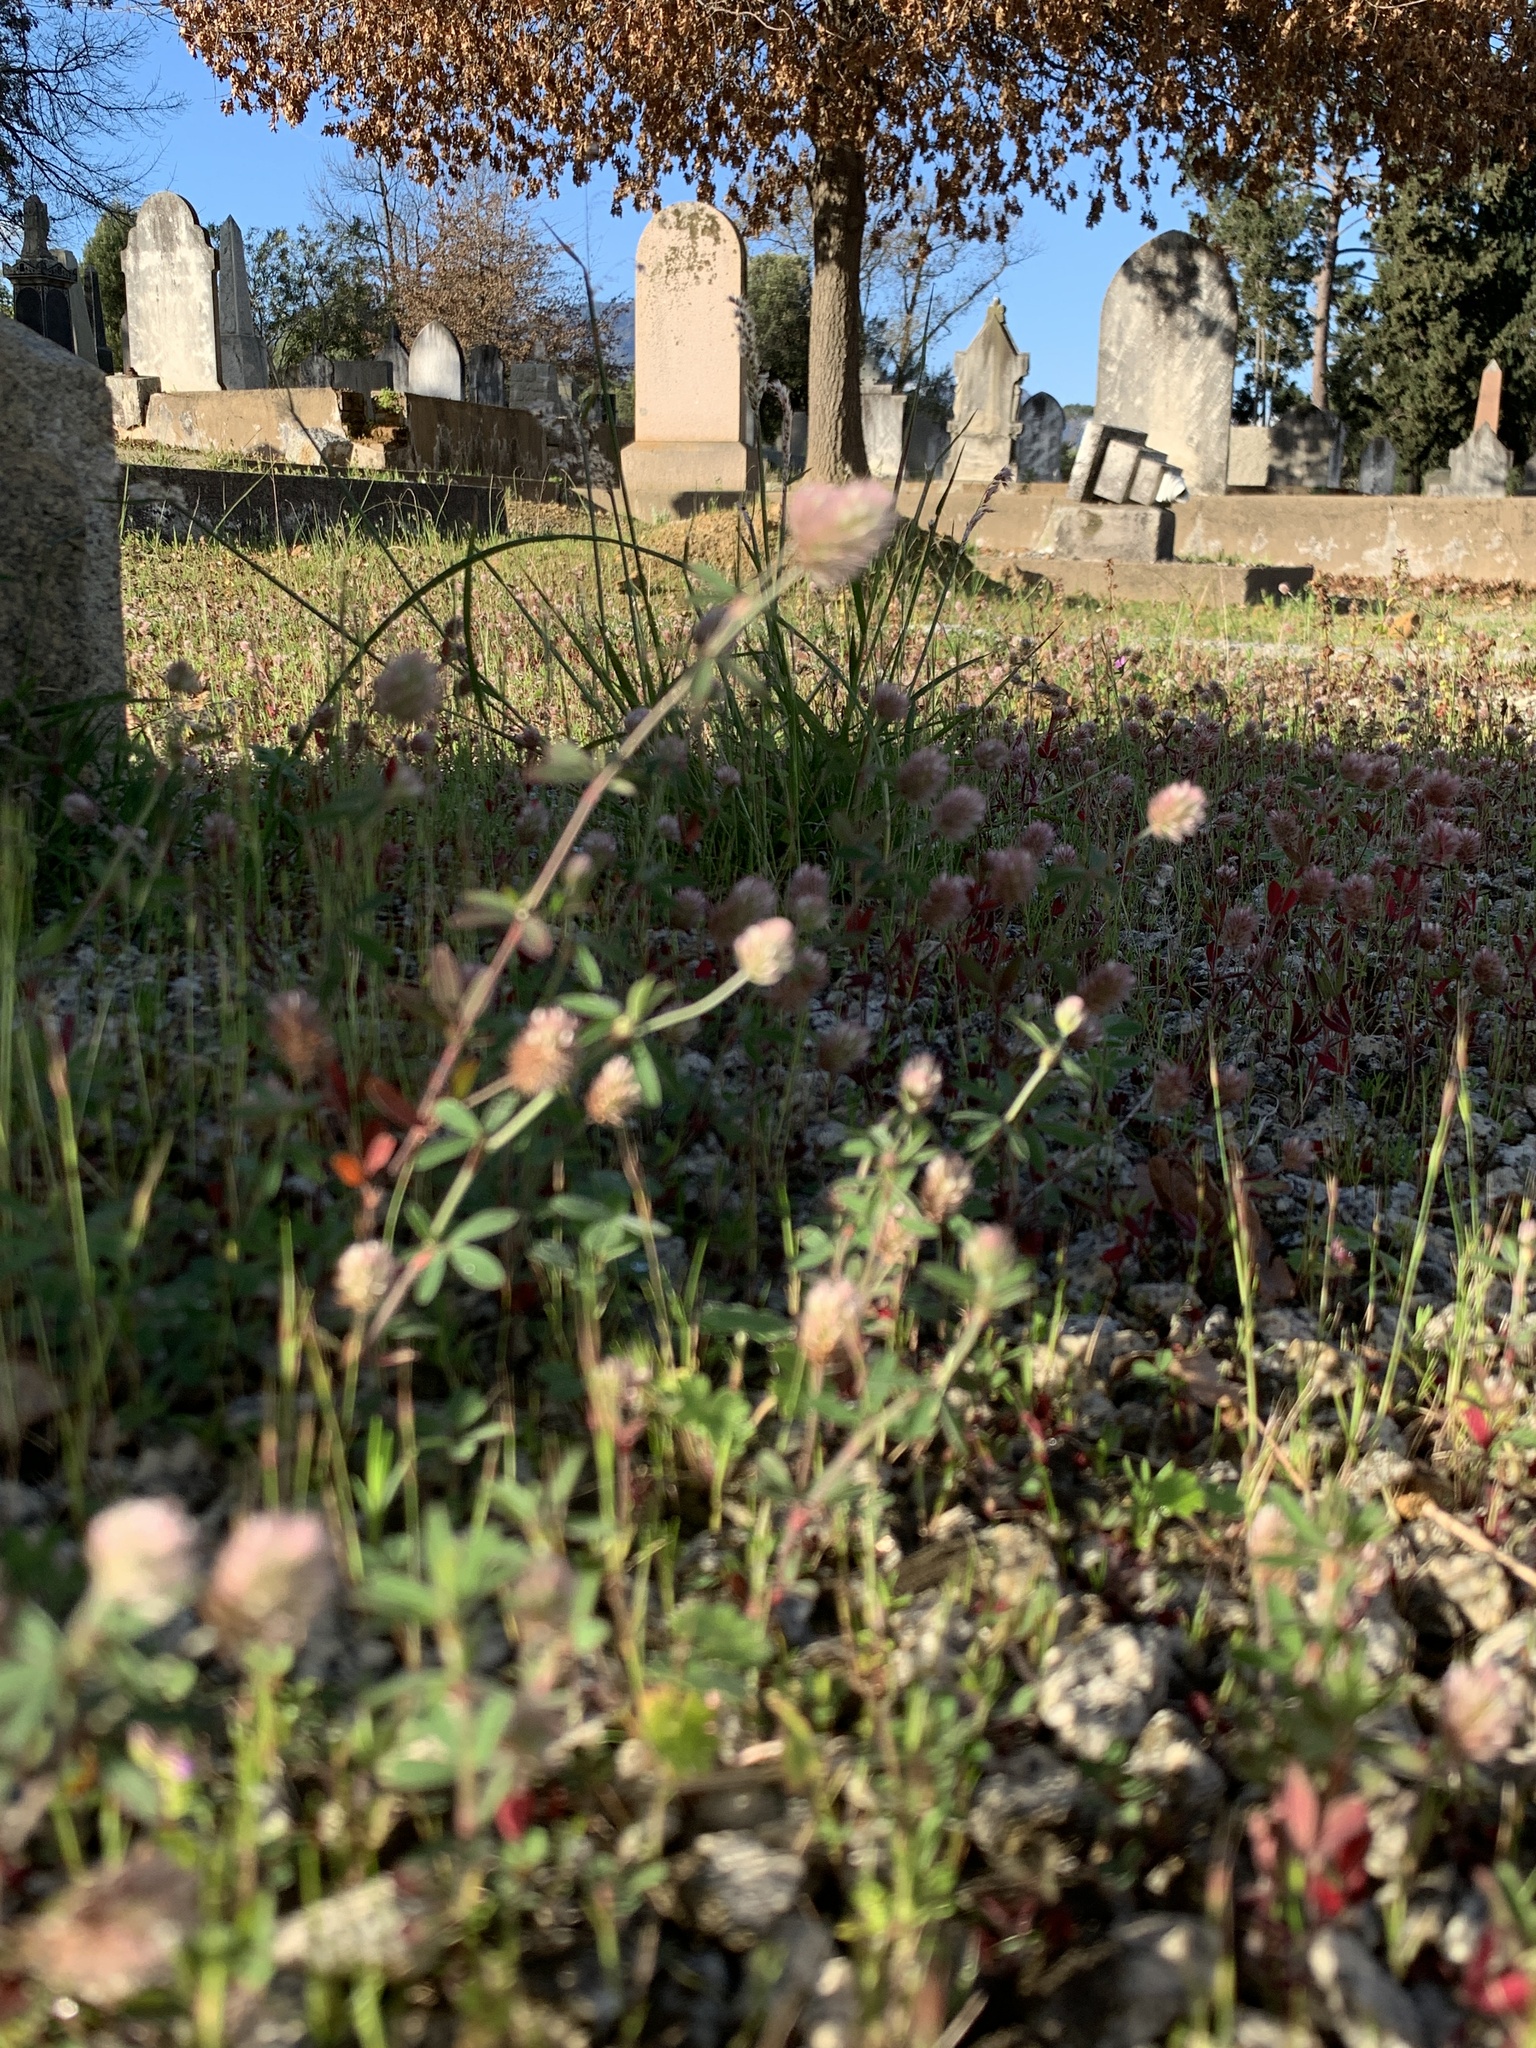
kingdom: Plantae
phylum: Tracheophyta
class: Magnoliopsida
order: Fabales
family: Fabaceae
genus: Trifolium
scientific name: Trifolium arvense
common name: Hare's-foot clover
